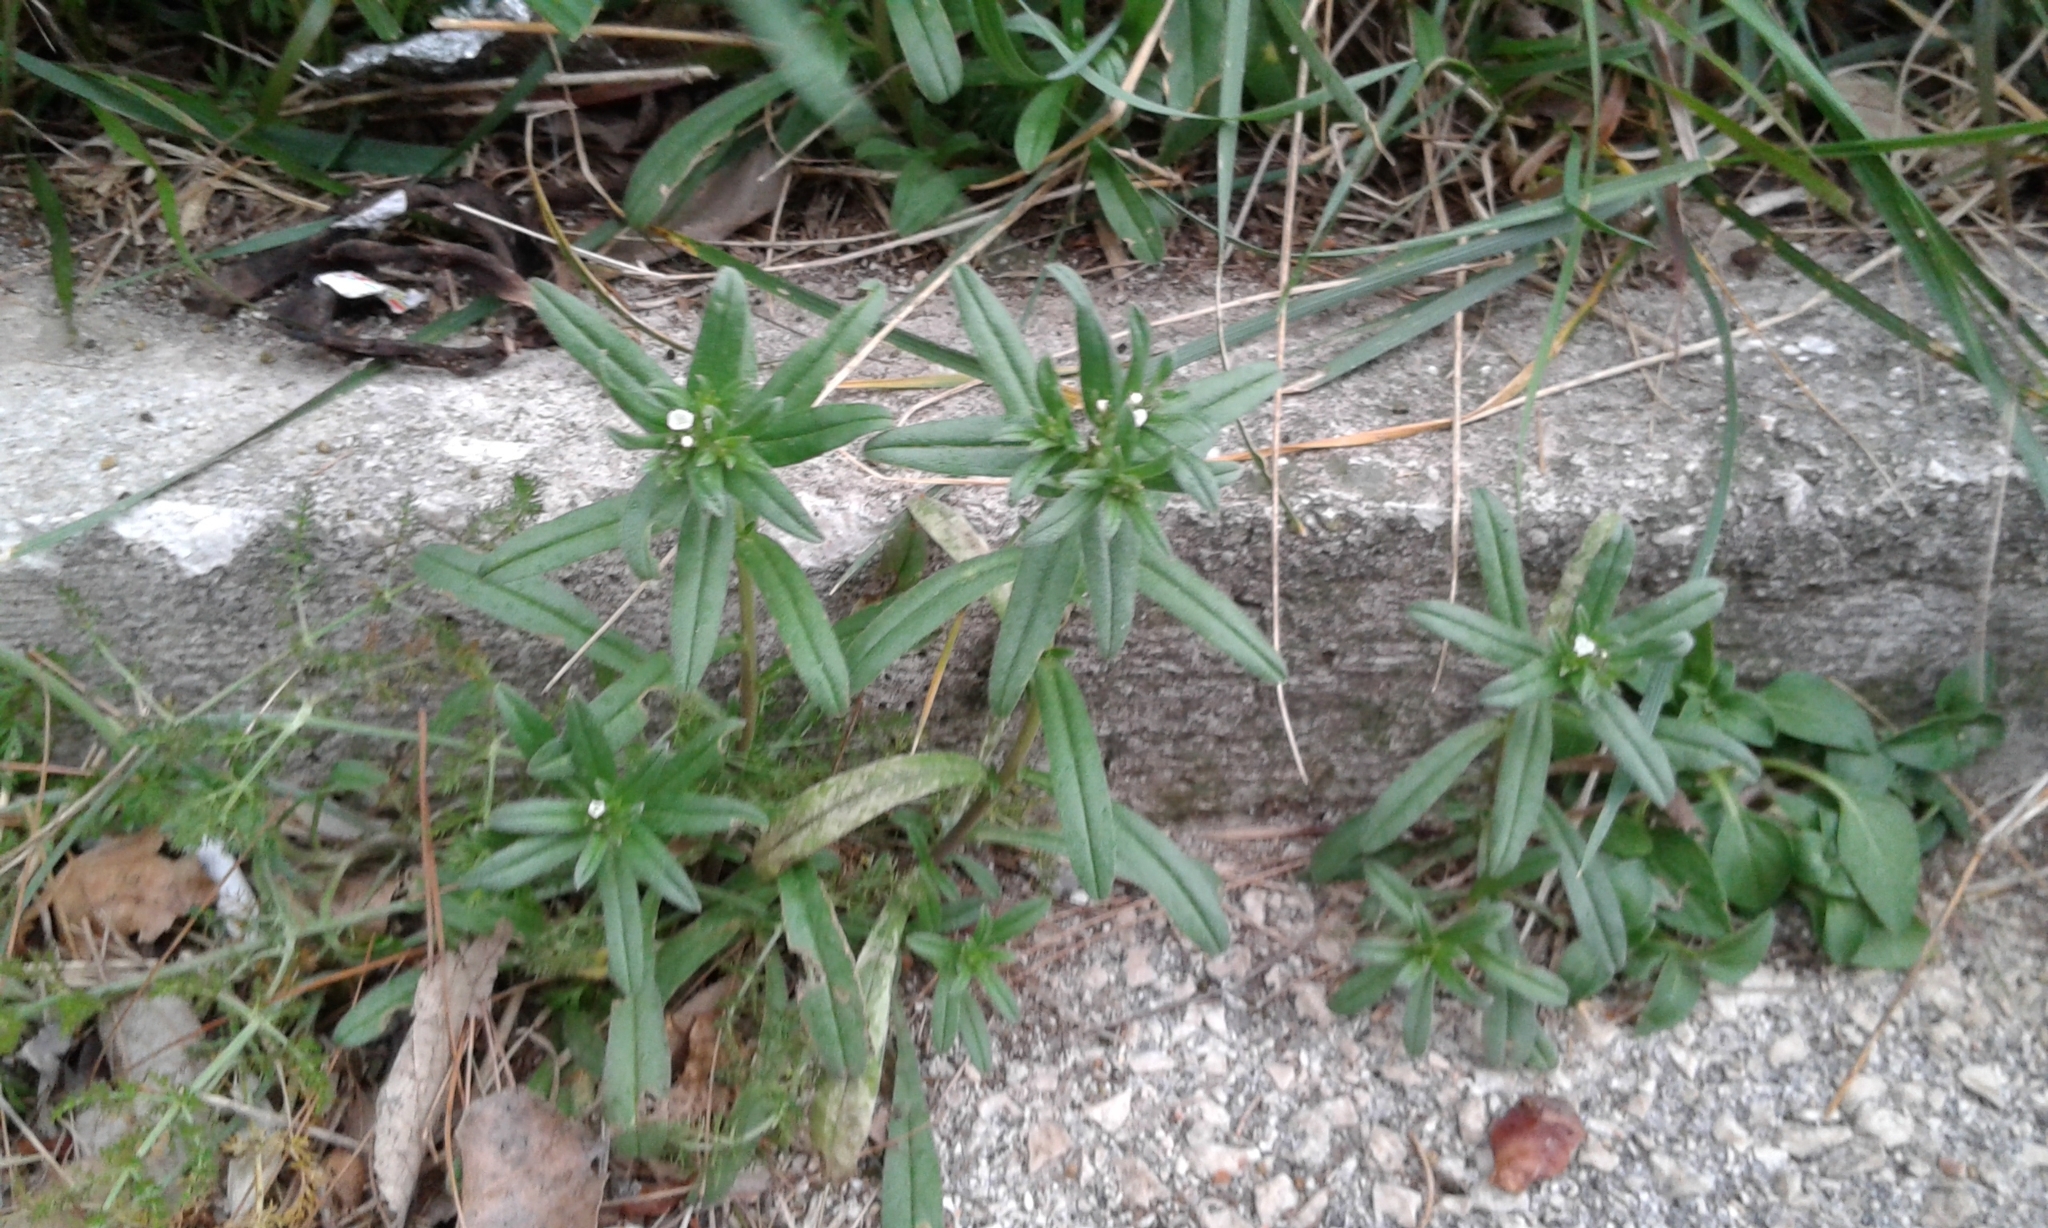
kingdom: Plantae
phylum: Tracheophyta
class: Magnoliopsida
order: Boraginales
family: Boraginaceae
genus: Buglossoides
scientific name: Buglossoides arvensis
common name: Corn gromwell
